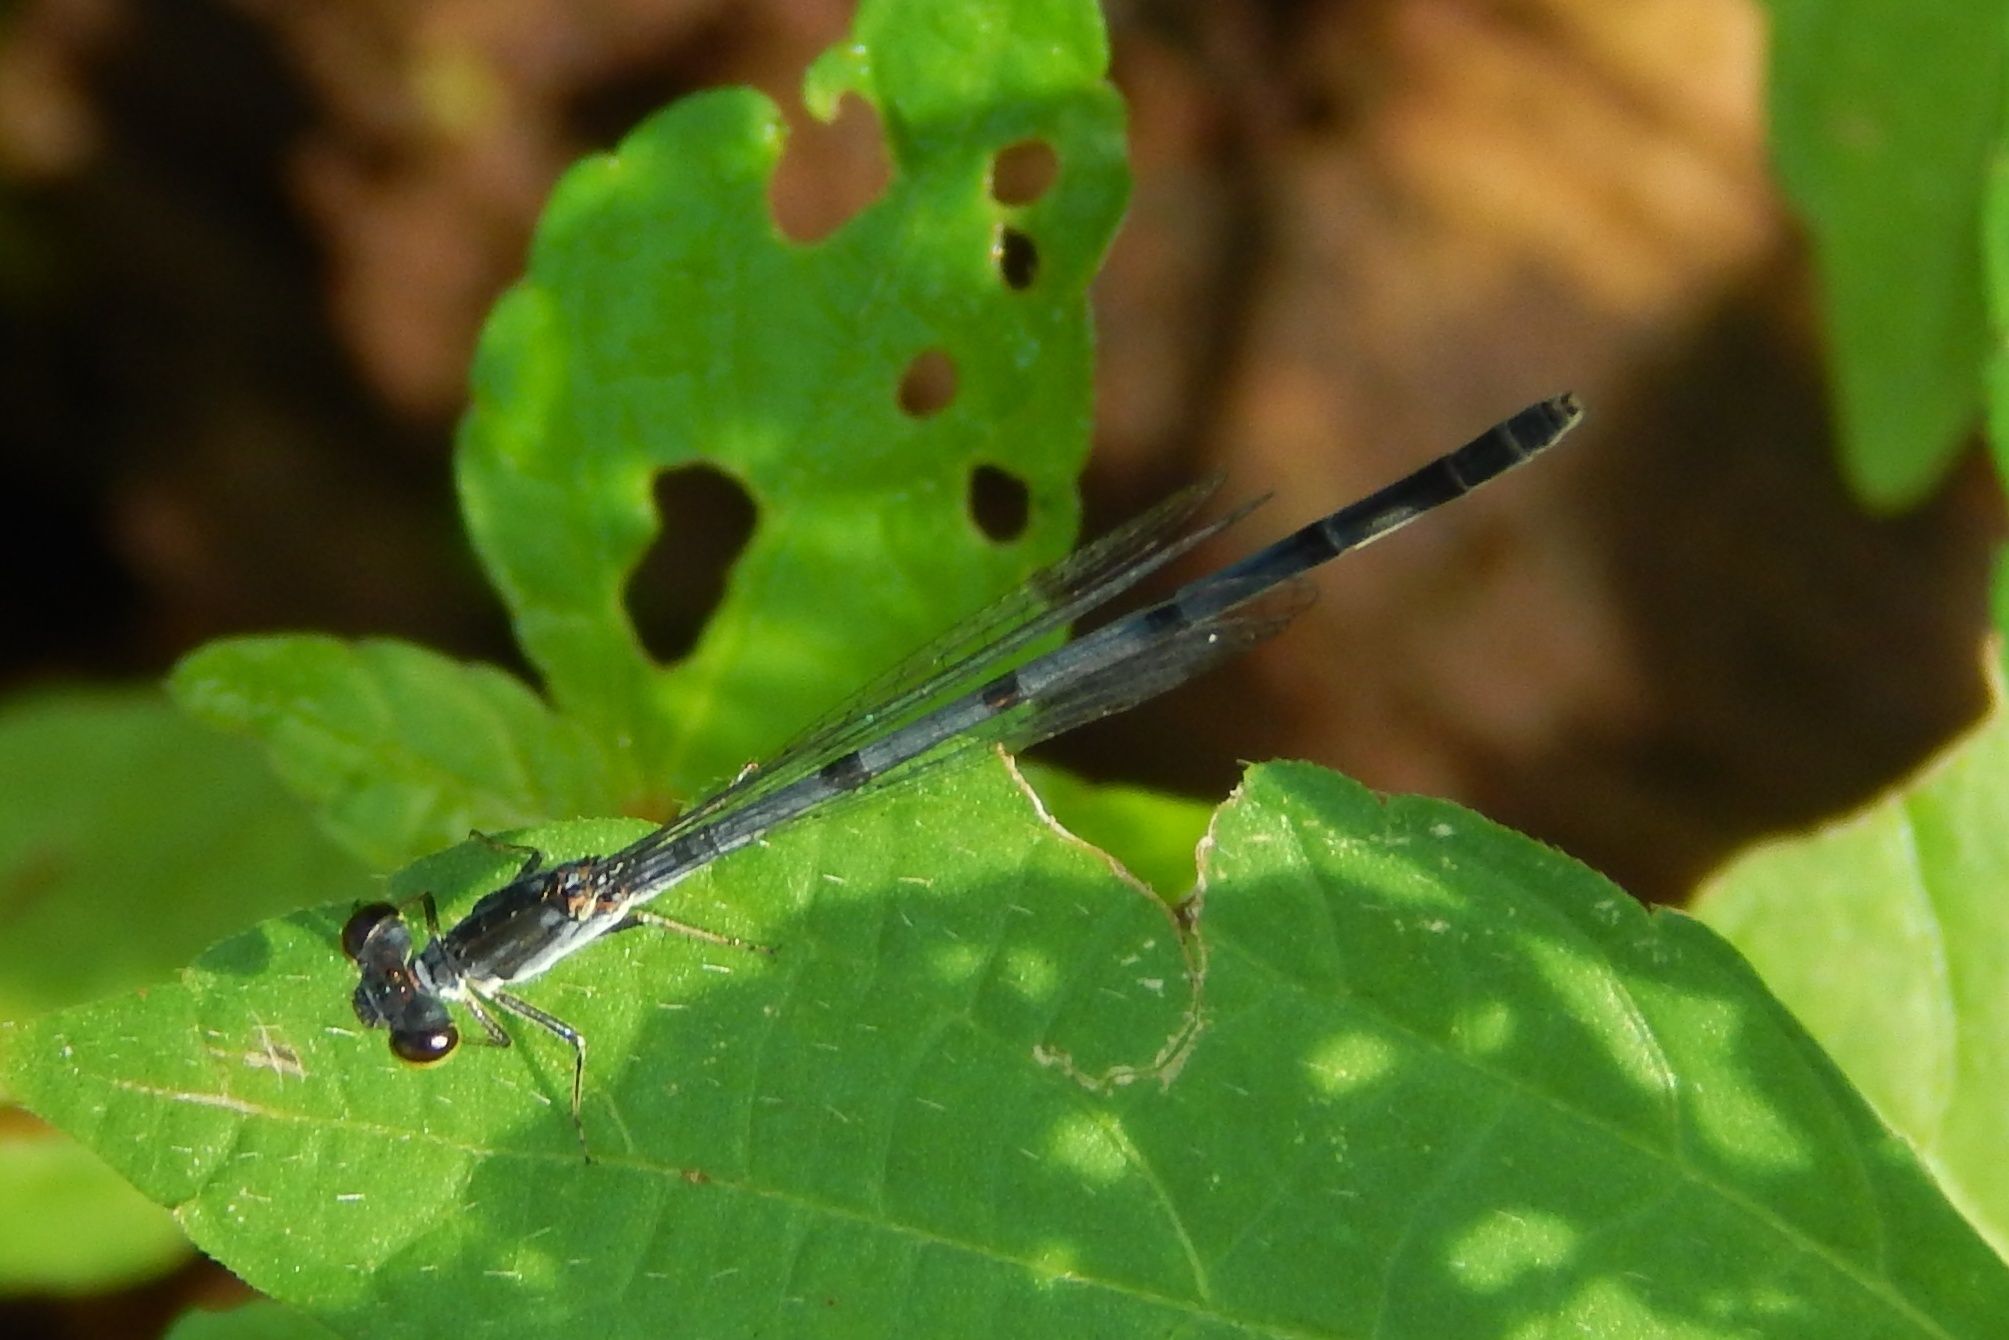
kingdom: Animalia
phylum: Arthropoda
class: Insecta
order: Odonata
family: Coenagrionidae
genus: Ischnura
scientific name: Ischnura posita
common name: Fragile forktail
